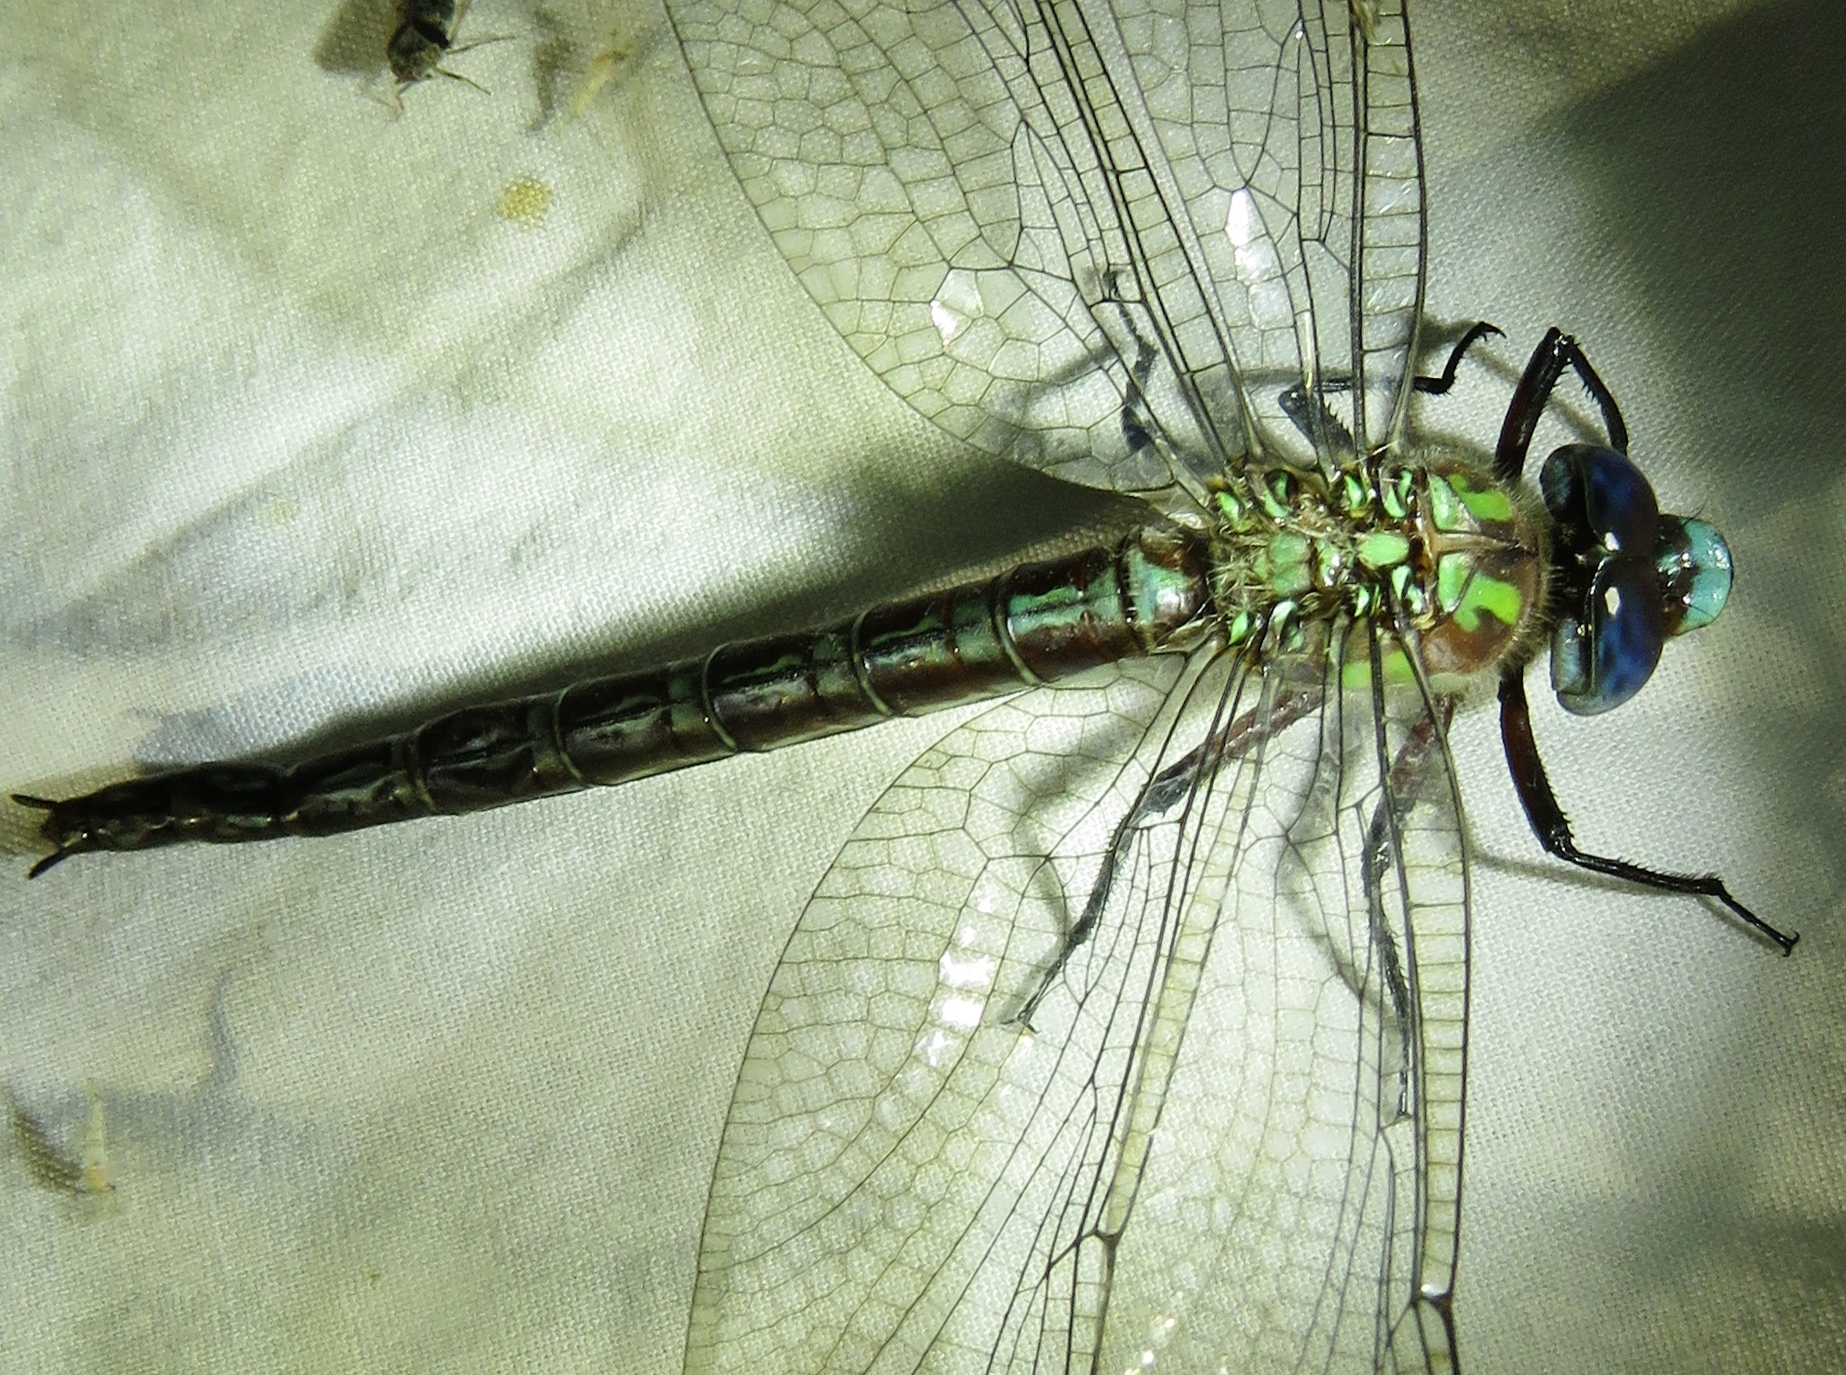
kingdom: Animalia
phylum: Arthropoda
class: Insecta
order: Odonata
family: Aeshnidae
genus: Nasiaeschna
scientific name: Nasiaeschna pentacantha
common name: Cyrano darner
